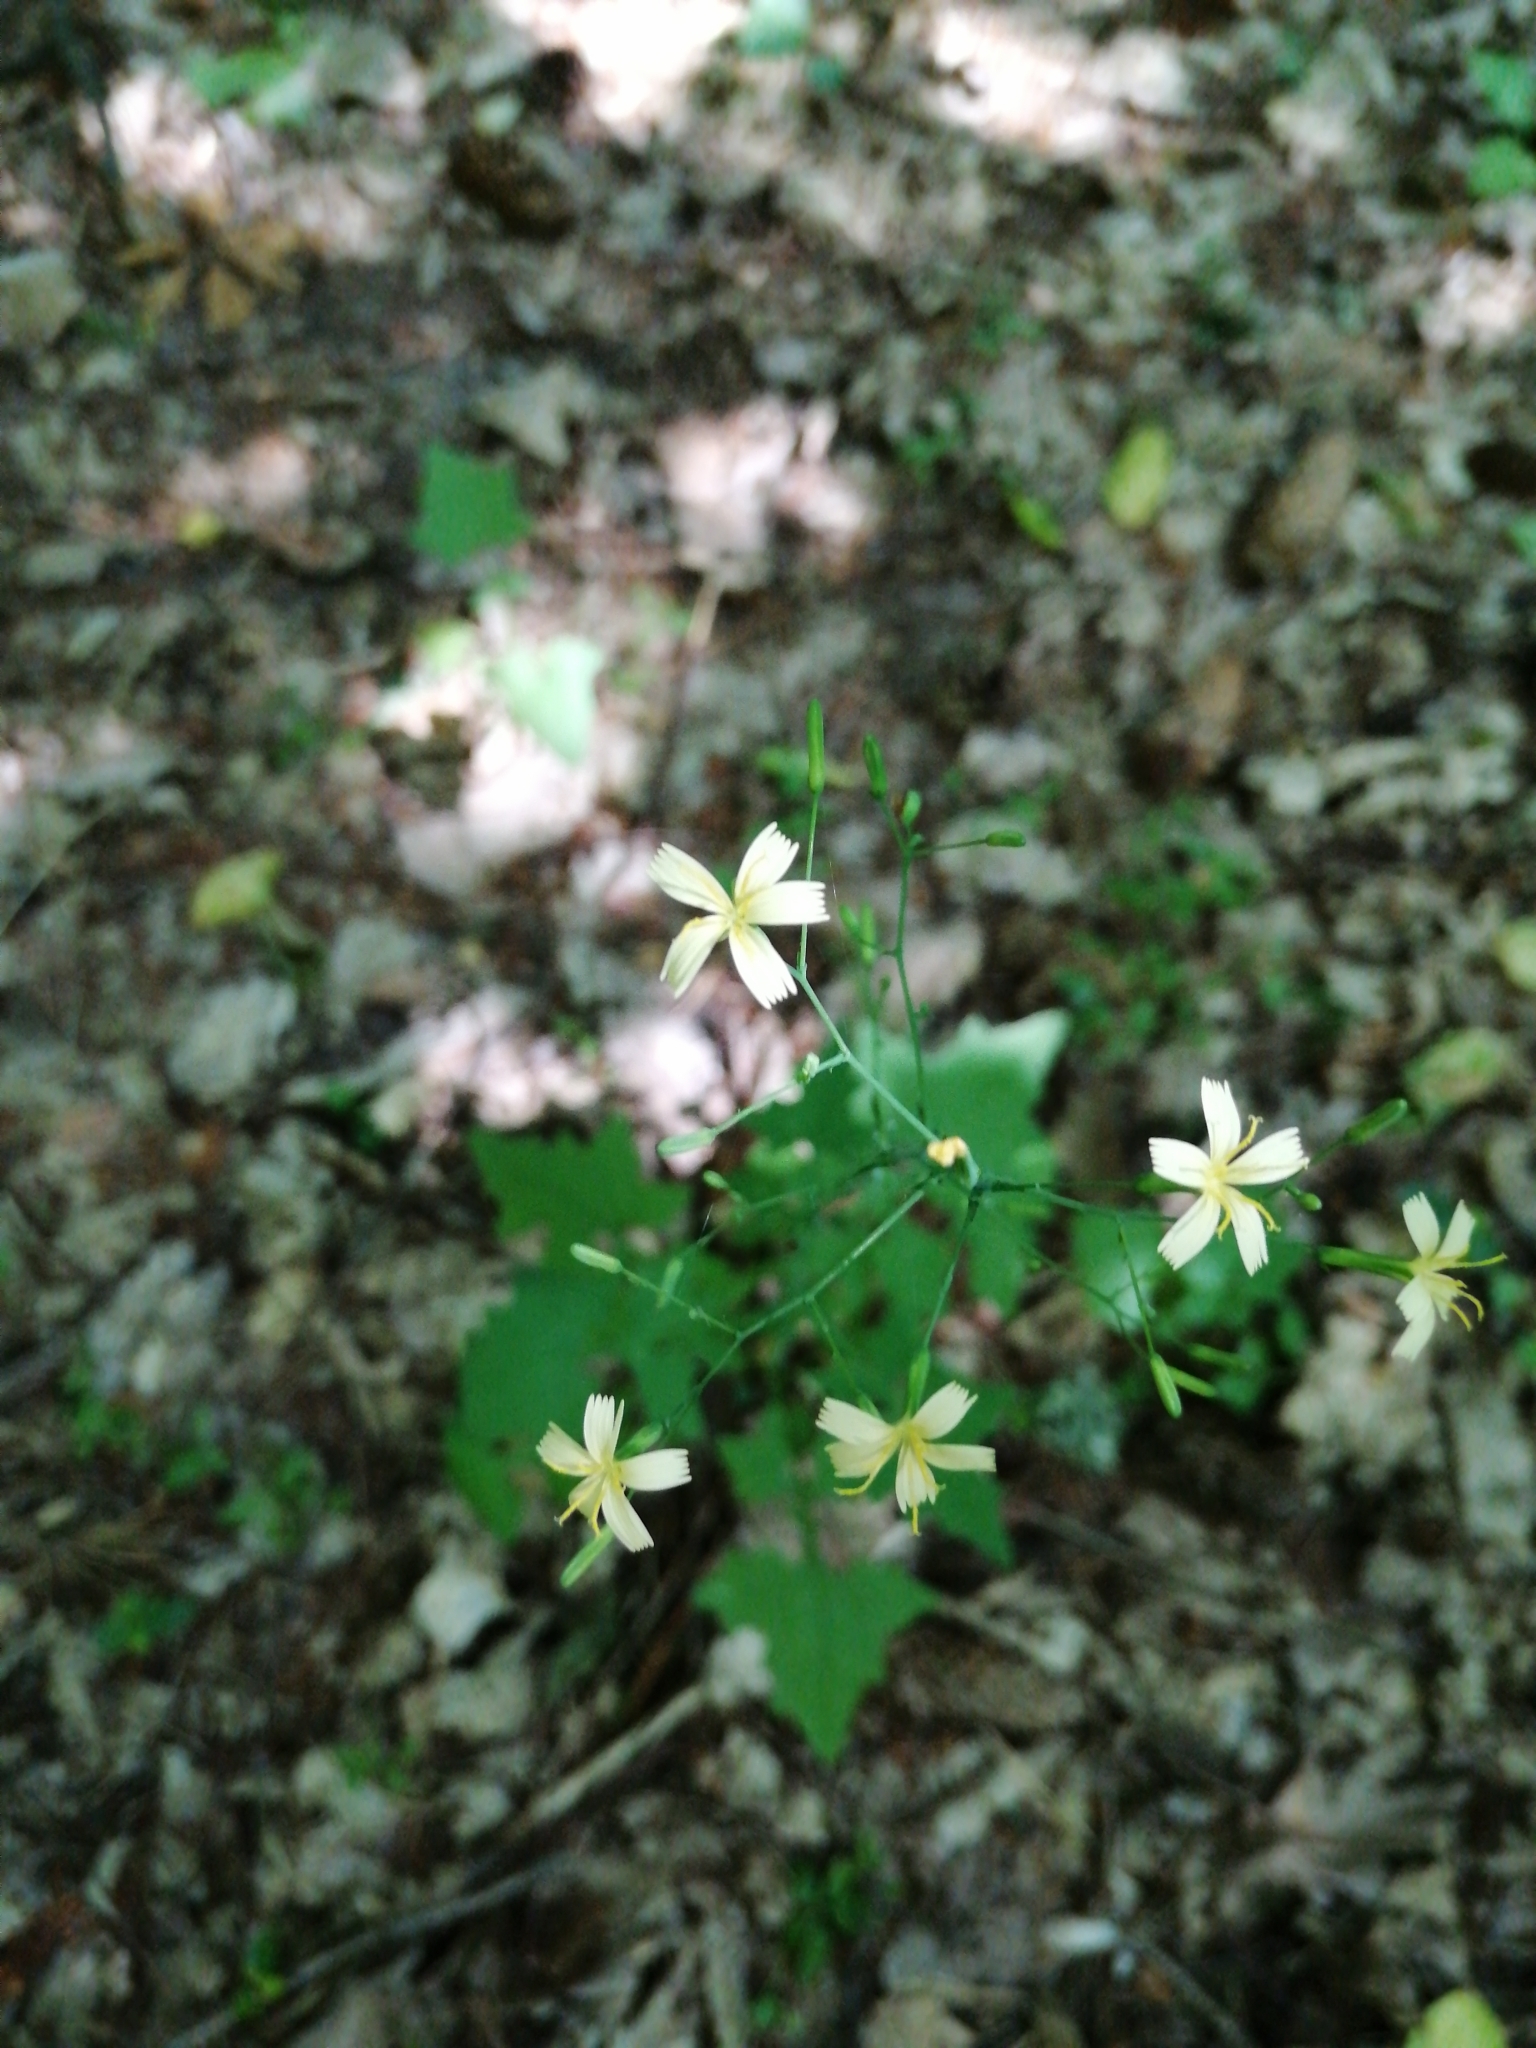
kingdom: Plantae
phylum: Tracheophyta
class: Magnoliopsida
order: Asterales
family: Asteraceae
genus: Mycelis
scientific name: Mycelis muralis
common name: Wall lettuce
